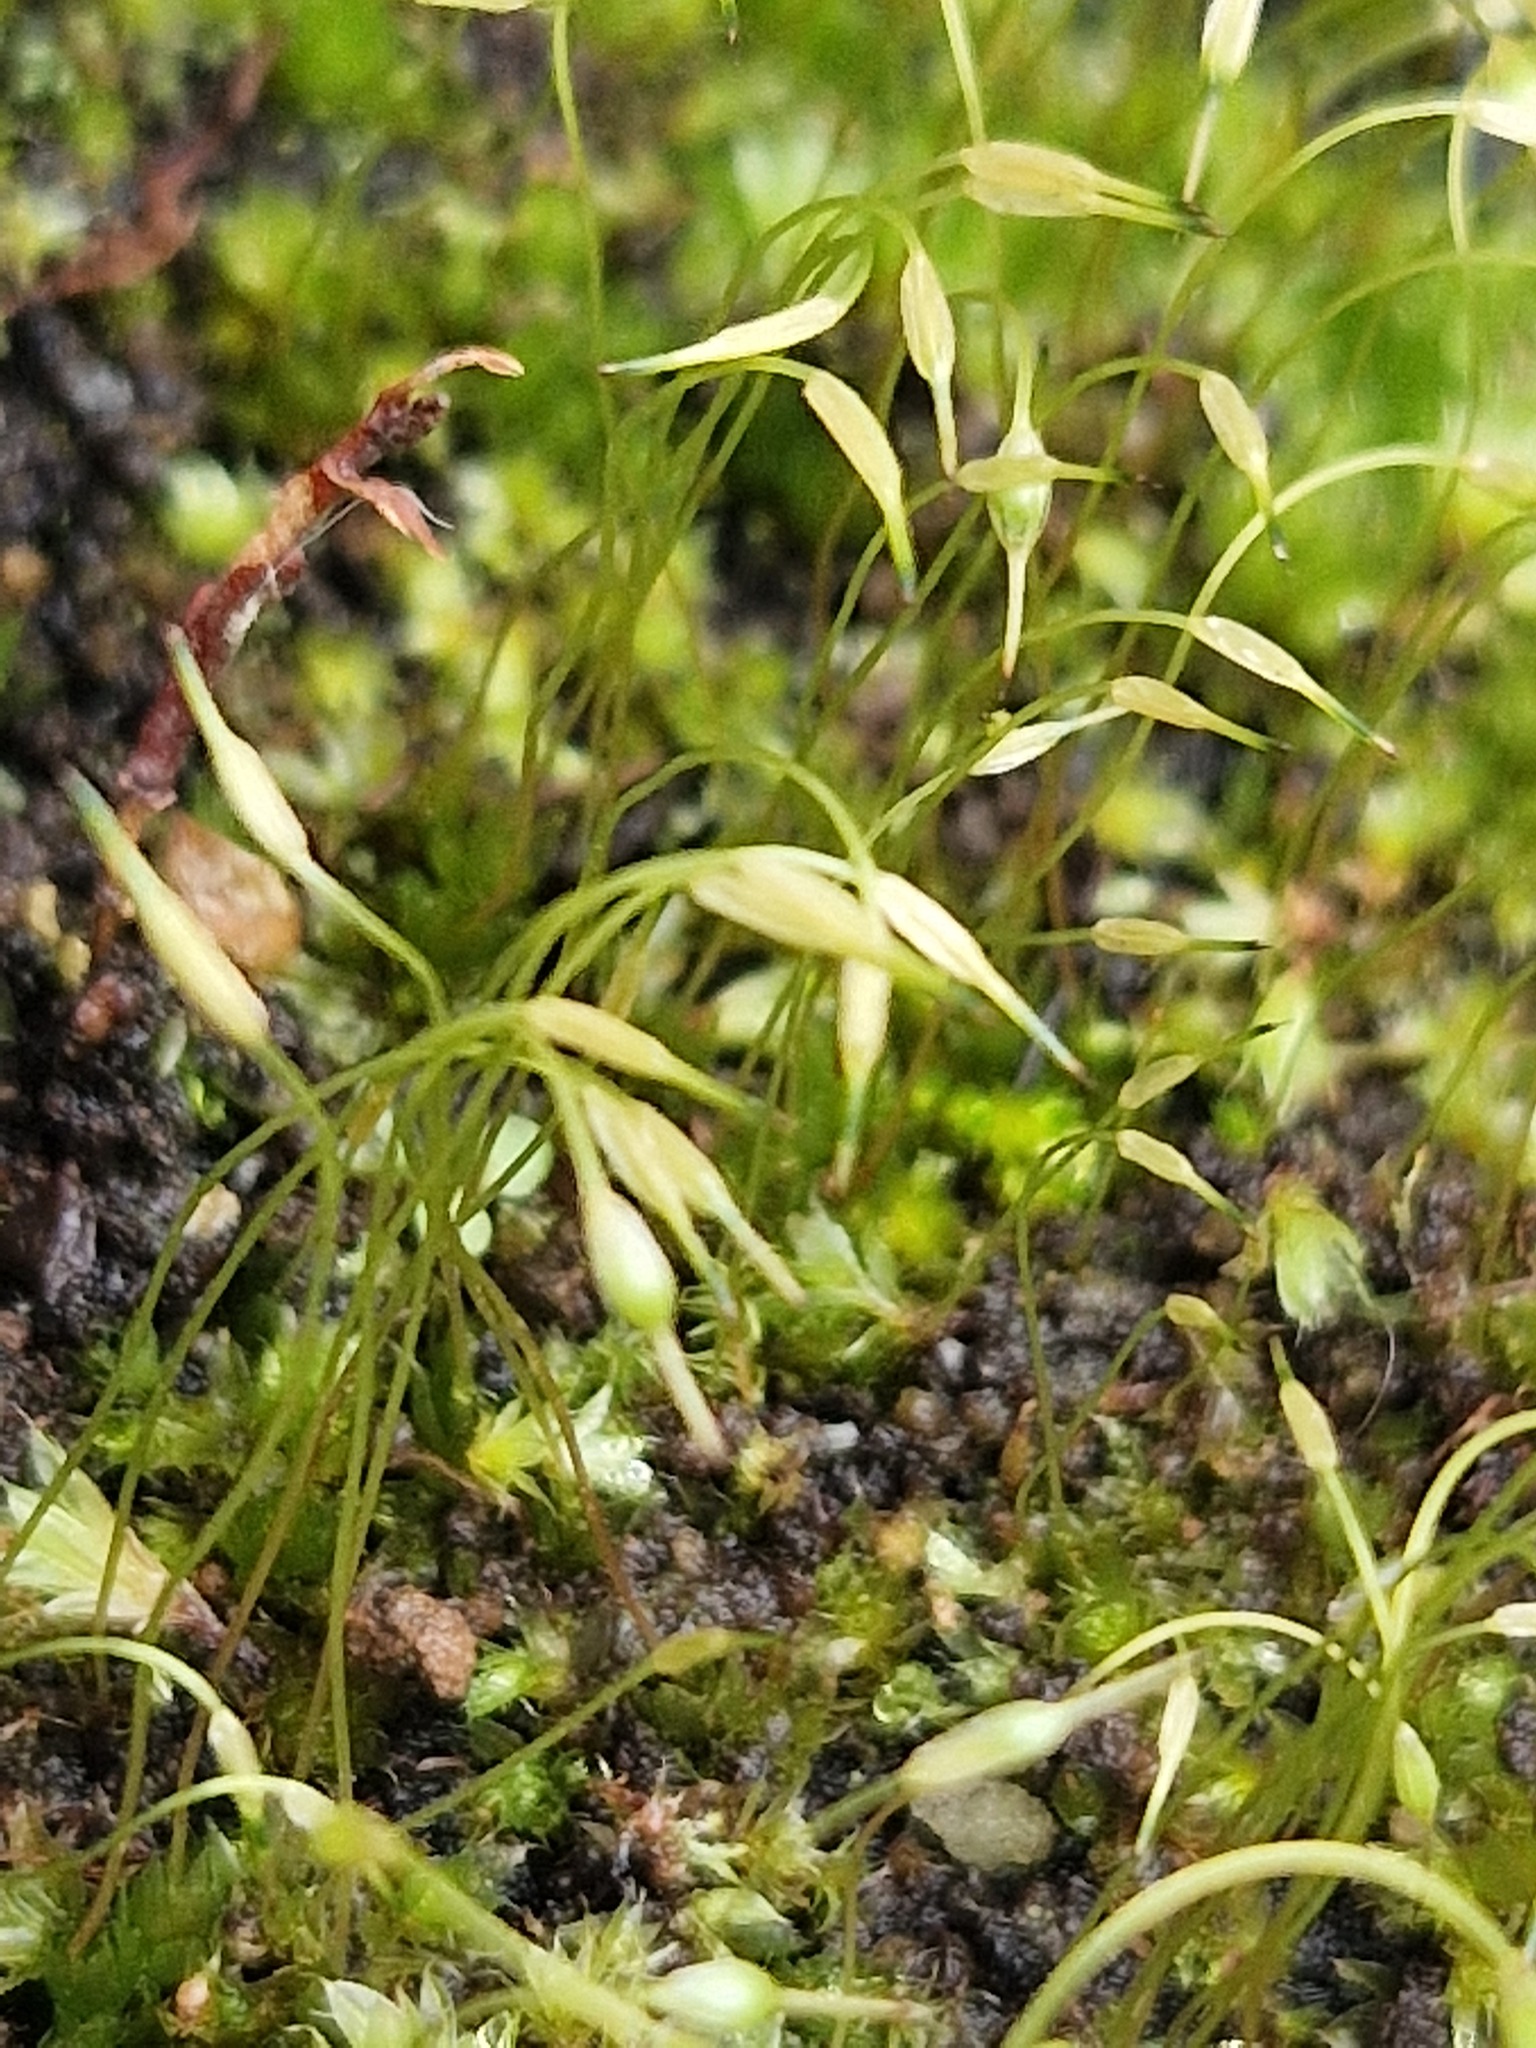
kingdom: Plantae
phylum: Bryophyta
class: Bryopsida
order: Funariales
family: Funariaceae
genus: Funaria
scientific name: Funaria hygrometrica
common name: Common cord moss
